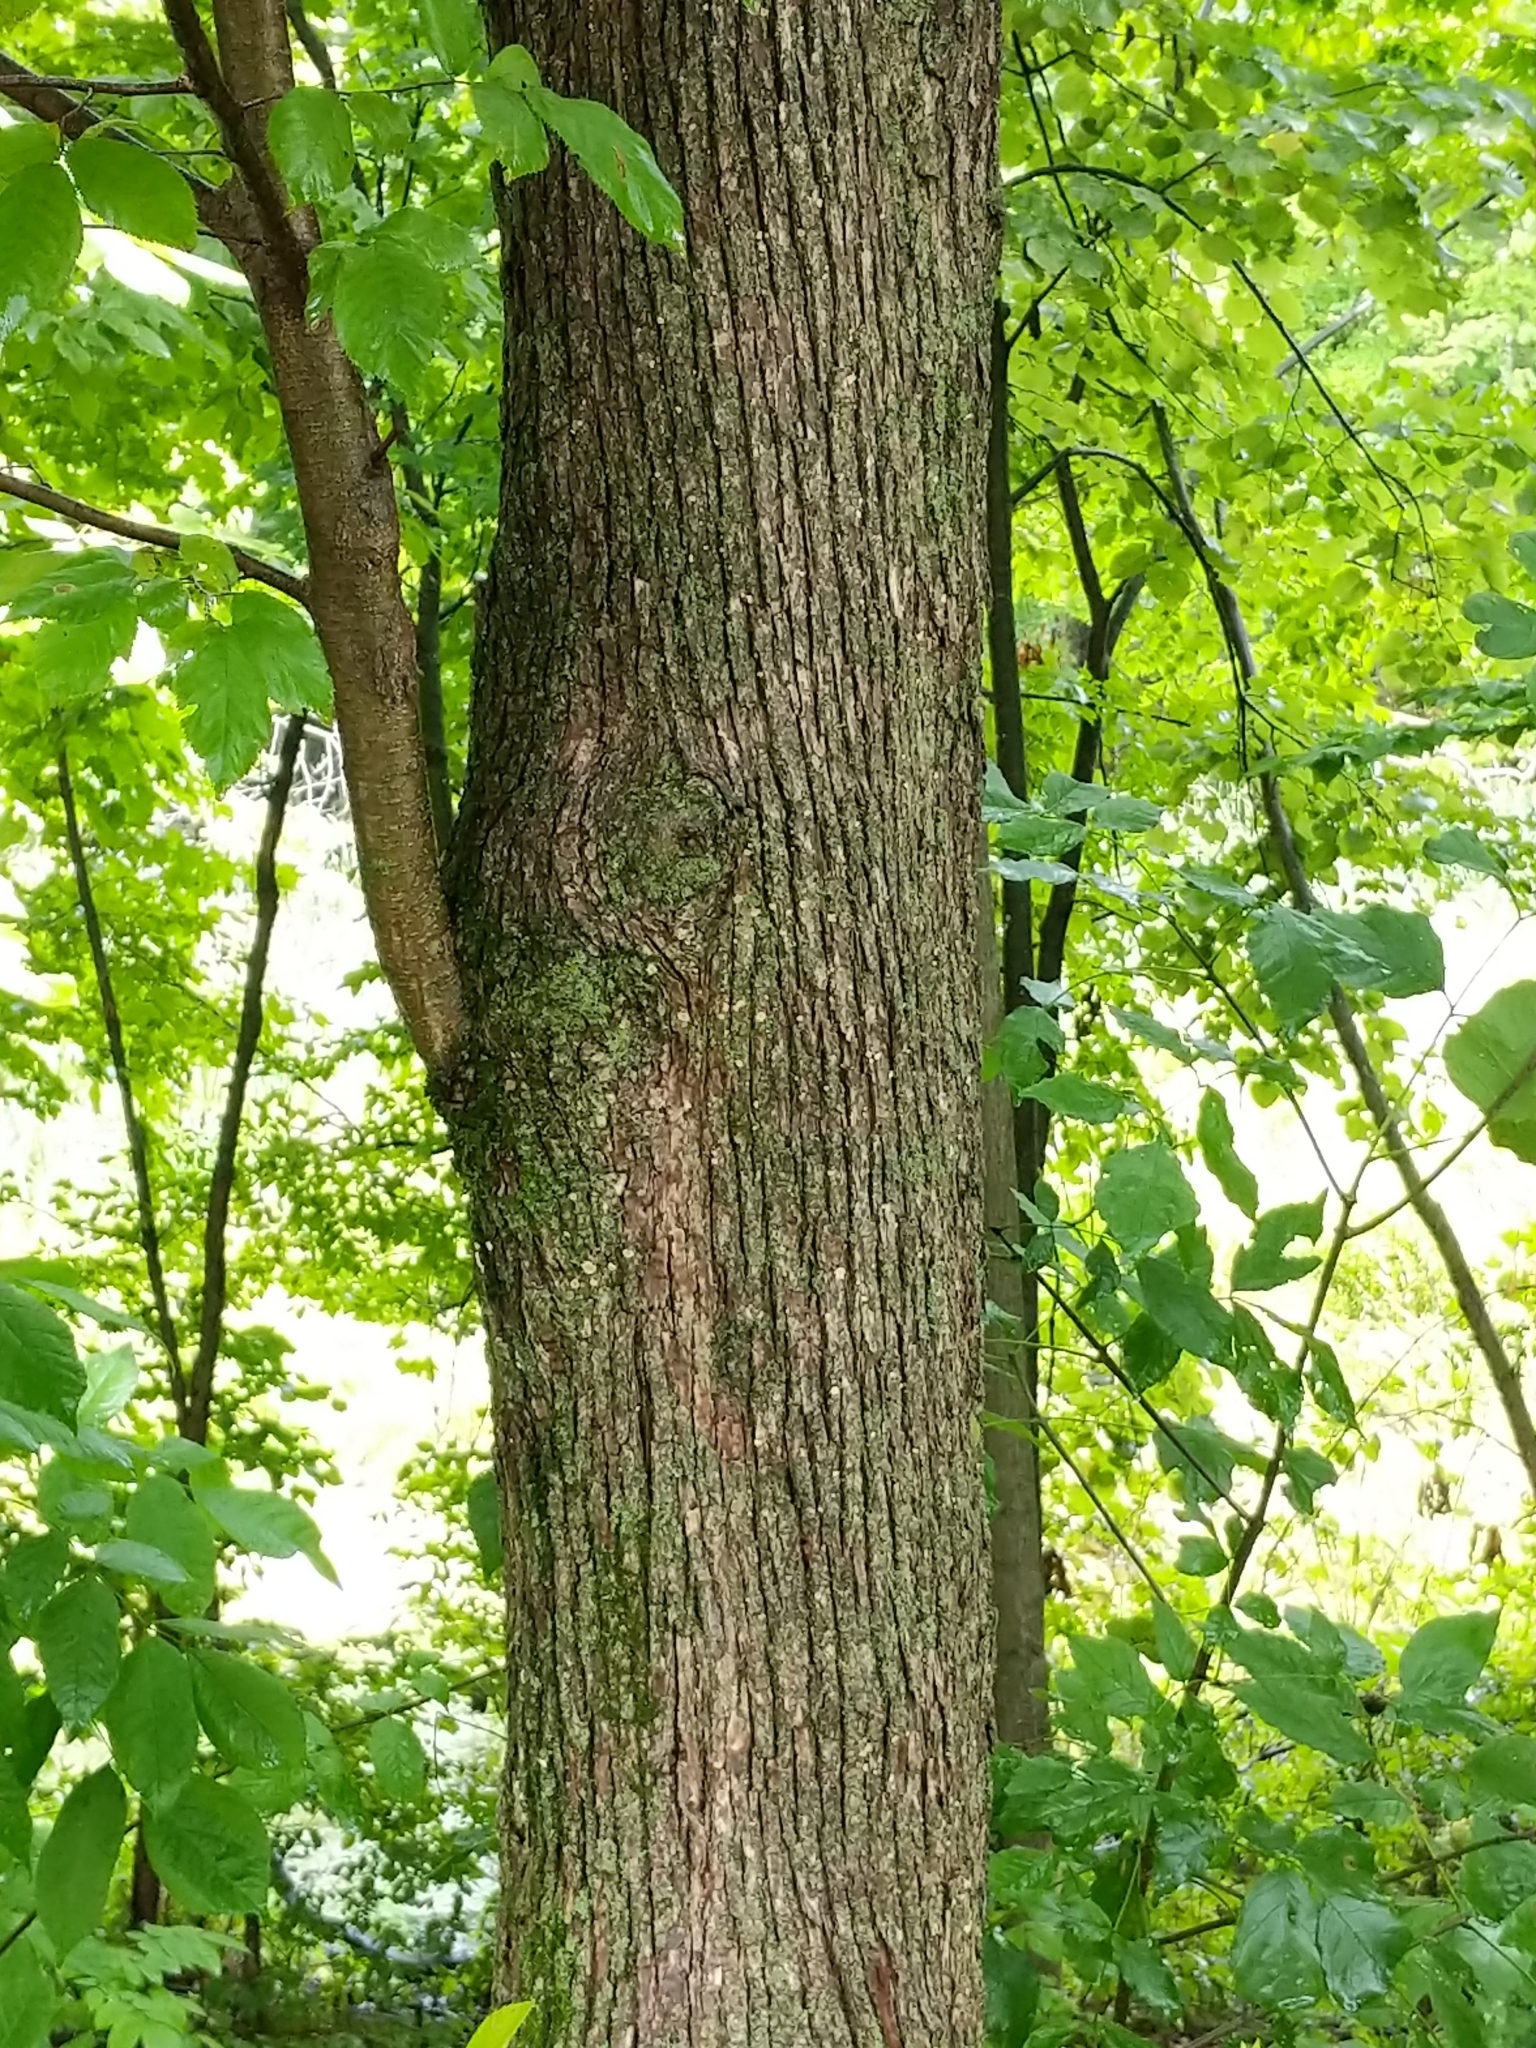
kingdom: Plantae
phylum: Tracheophyta
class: Magnoliopsida
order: Fagales
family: Betulaceae
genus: Carpinus
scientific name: Carpinus caroliniana
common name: American hornbeam
